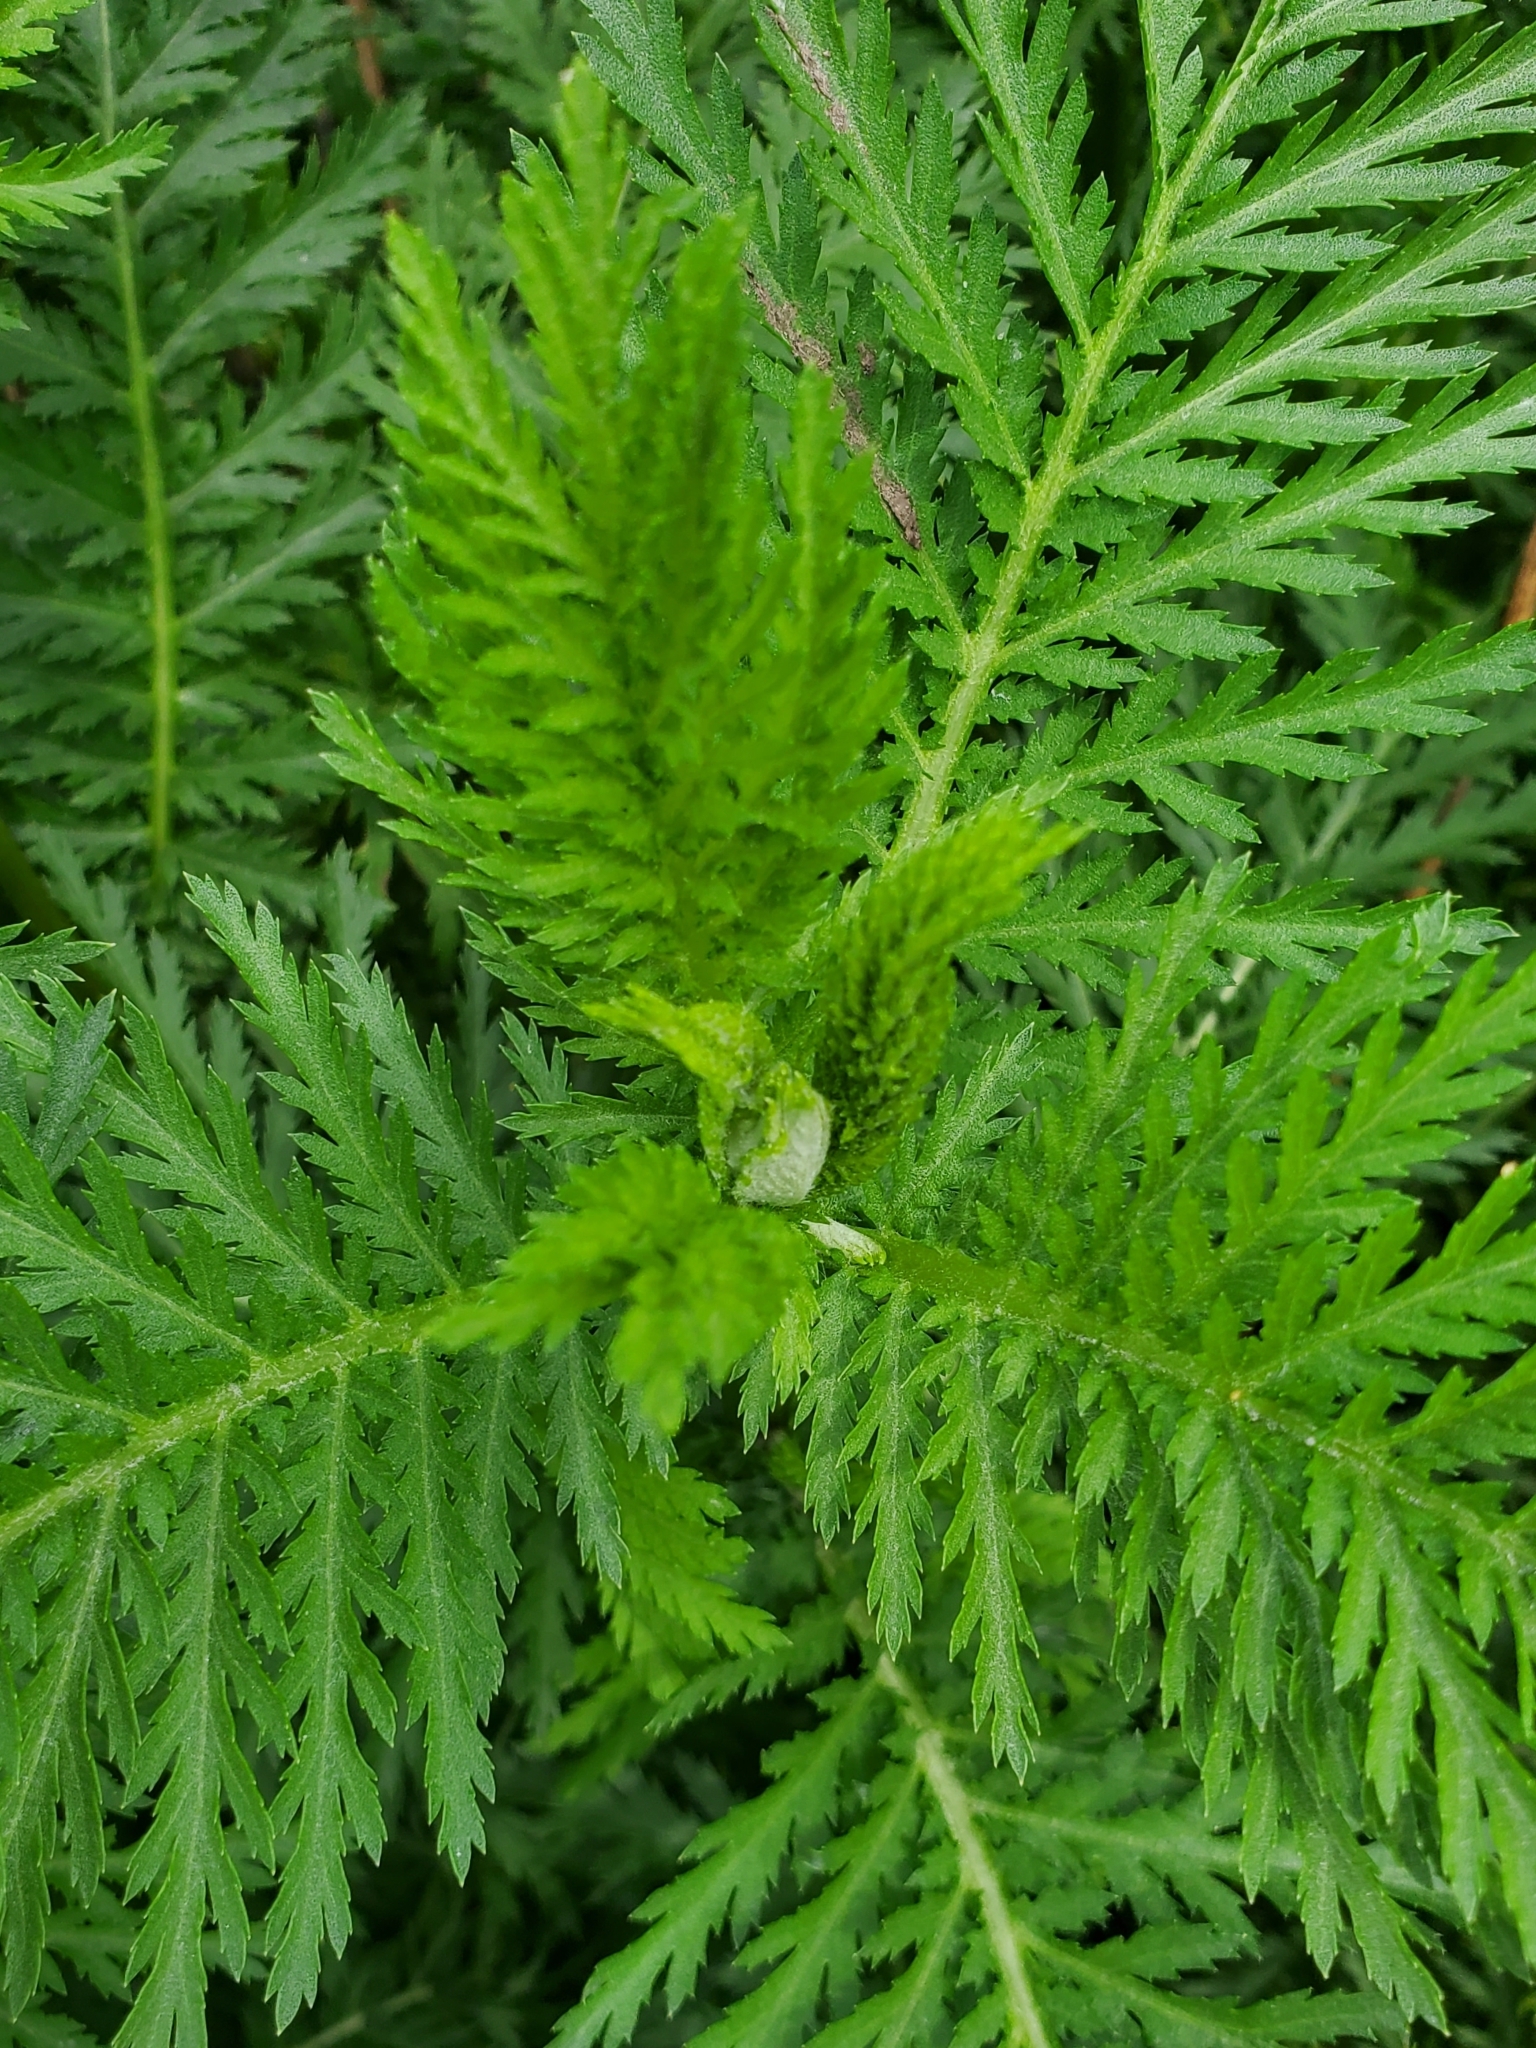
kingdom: Plantae
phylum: Tracheophyta
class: Magnoliopsida
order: Asterales
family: Asteraceae
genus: Tanacetum
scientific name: Tanacetum vulgare
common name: Common tansy
